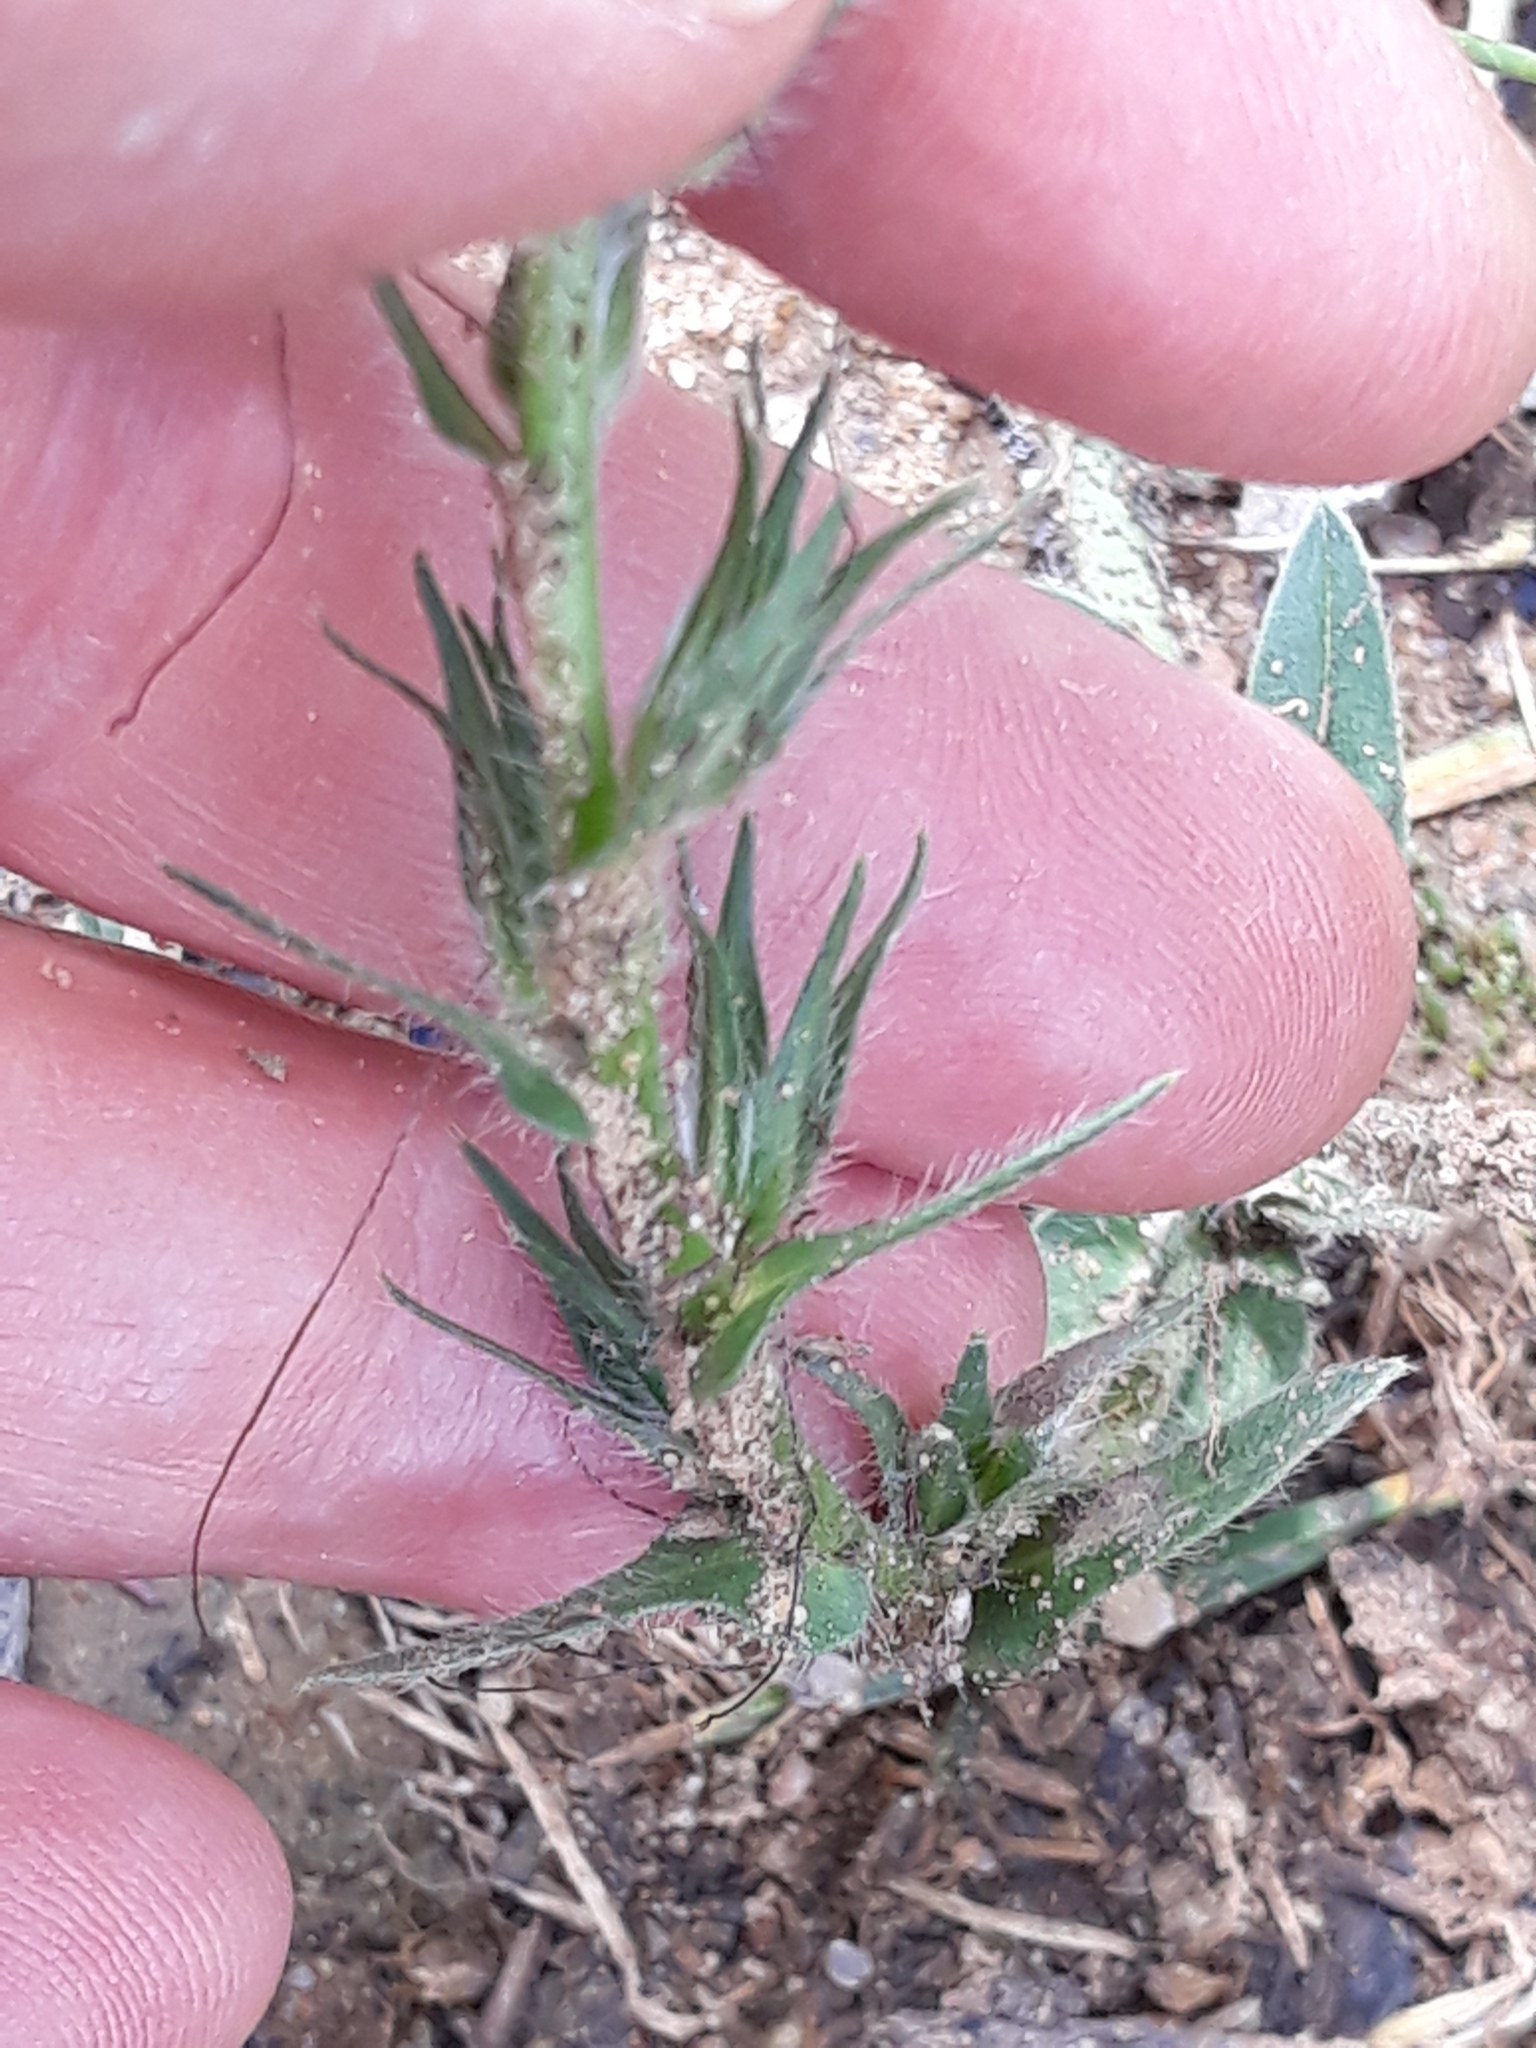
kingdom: Plantae
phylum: Tracheophyta
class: Magnoliopsida
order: Boraginales
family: Boraginaceae
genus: Echium
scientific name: Echium plantagineum
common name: Purple viper's-bugloss
